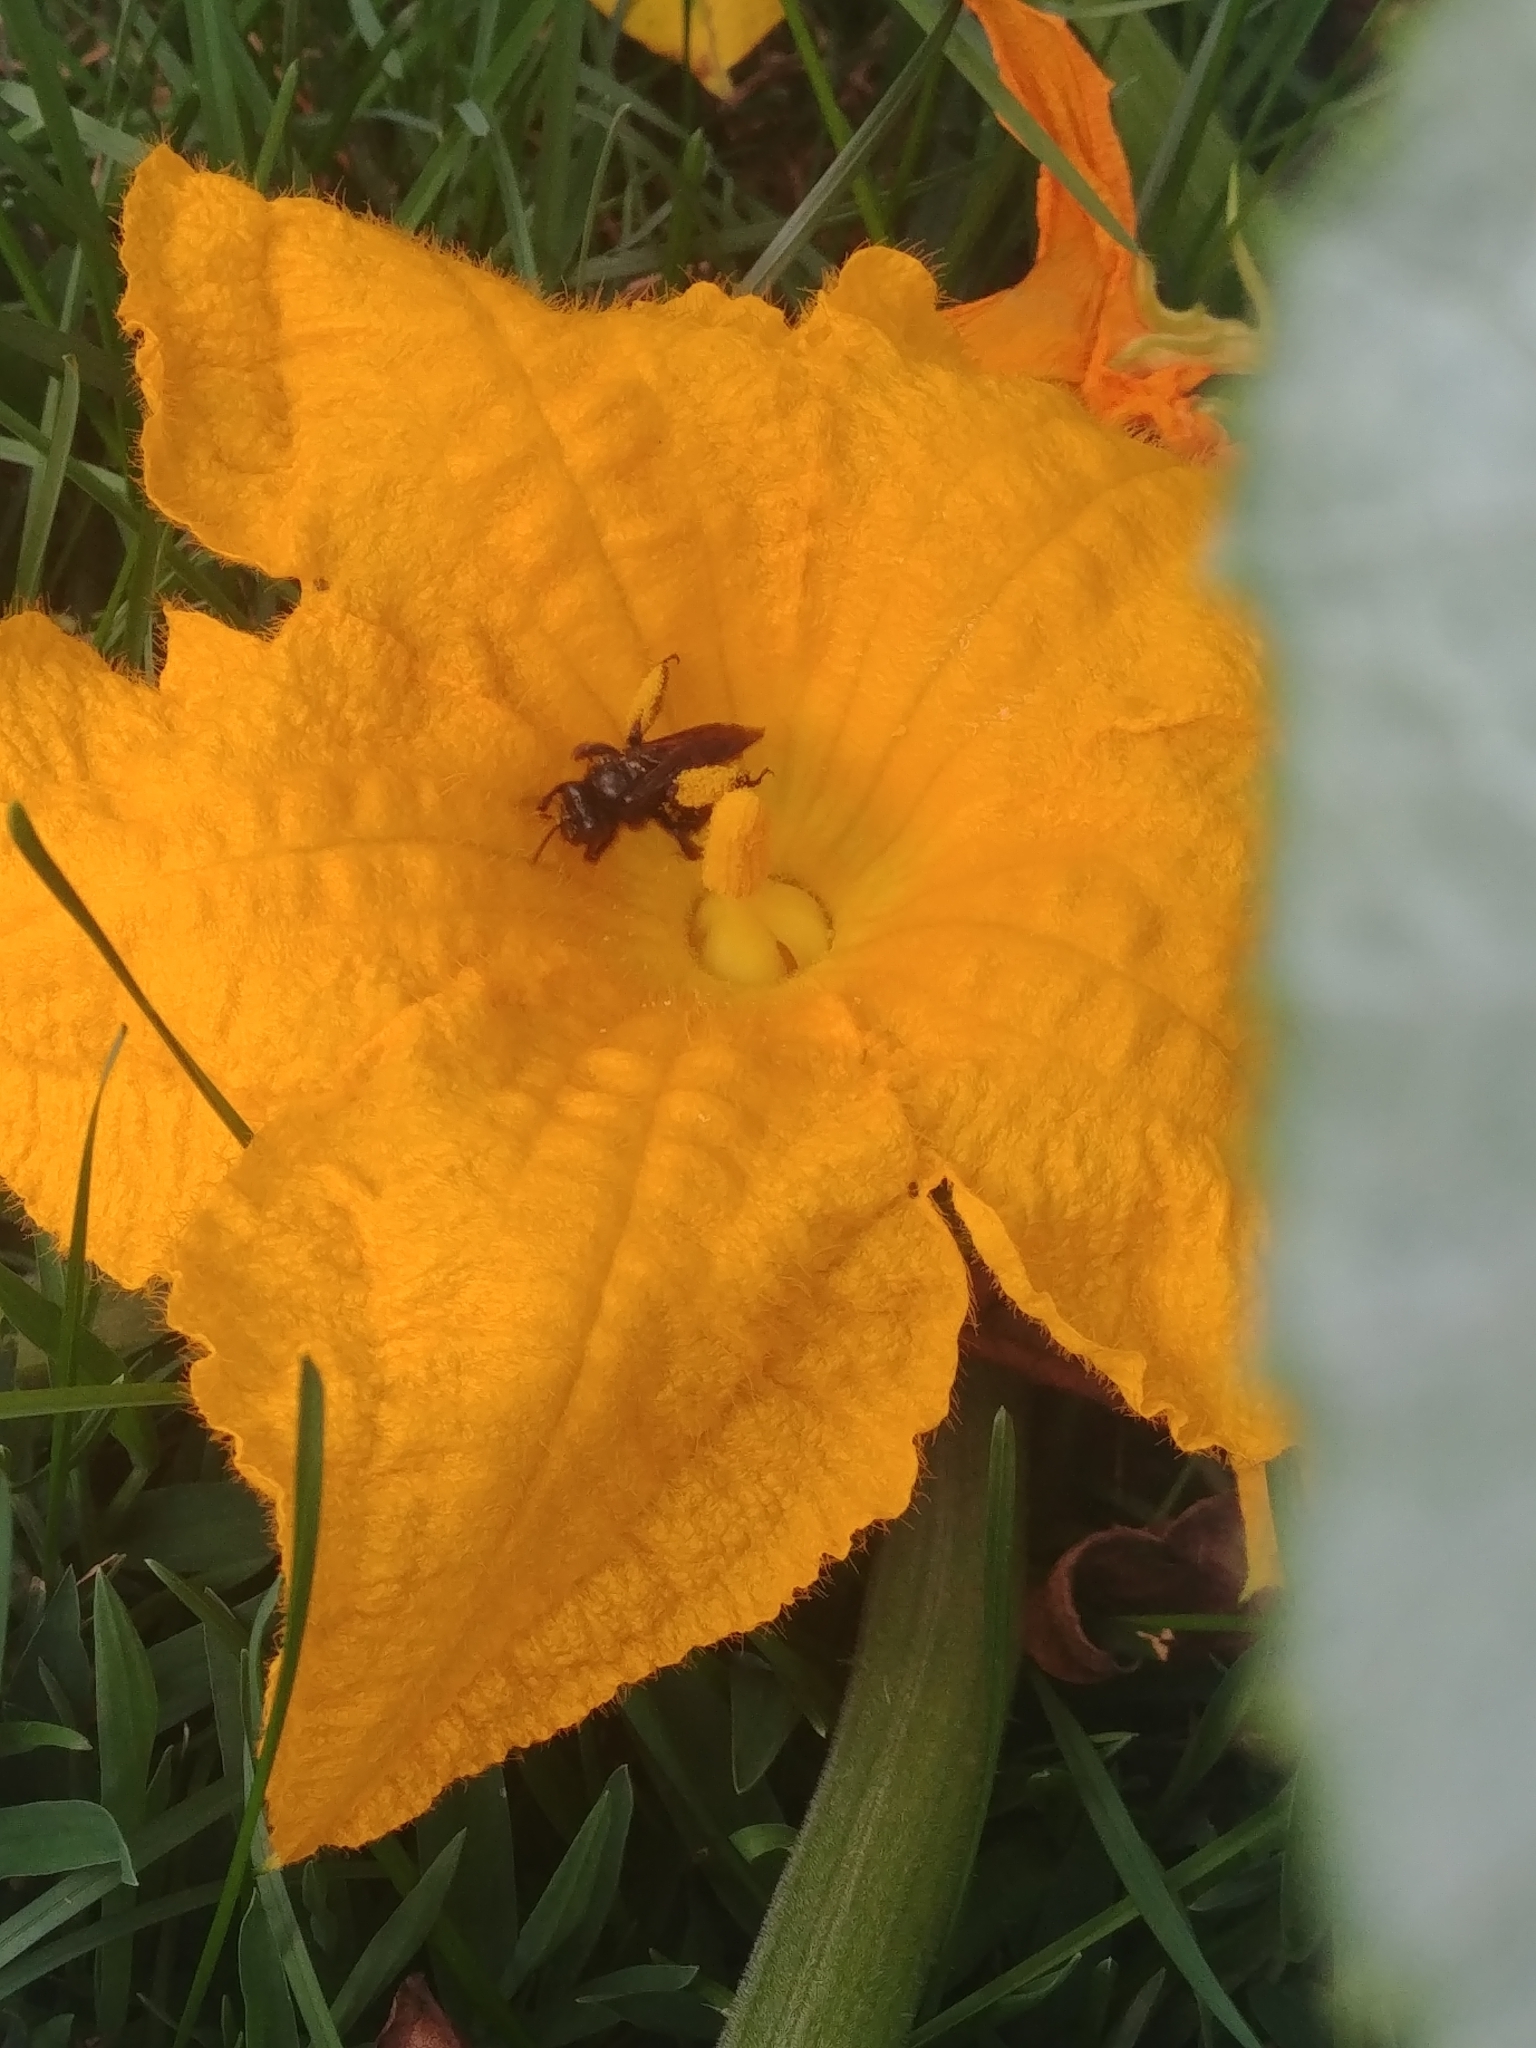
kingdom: Animalia
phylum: Arthropoda
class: Insecta
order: Hymenoptera
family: Apidae
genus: Melissodes
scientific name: Melissodes bimaculatus
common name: Two-spotted long-horned bee
